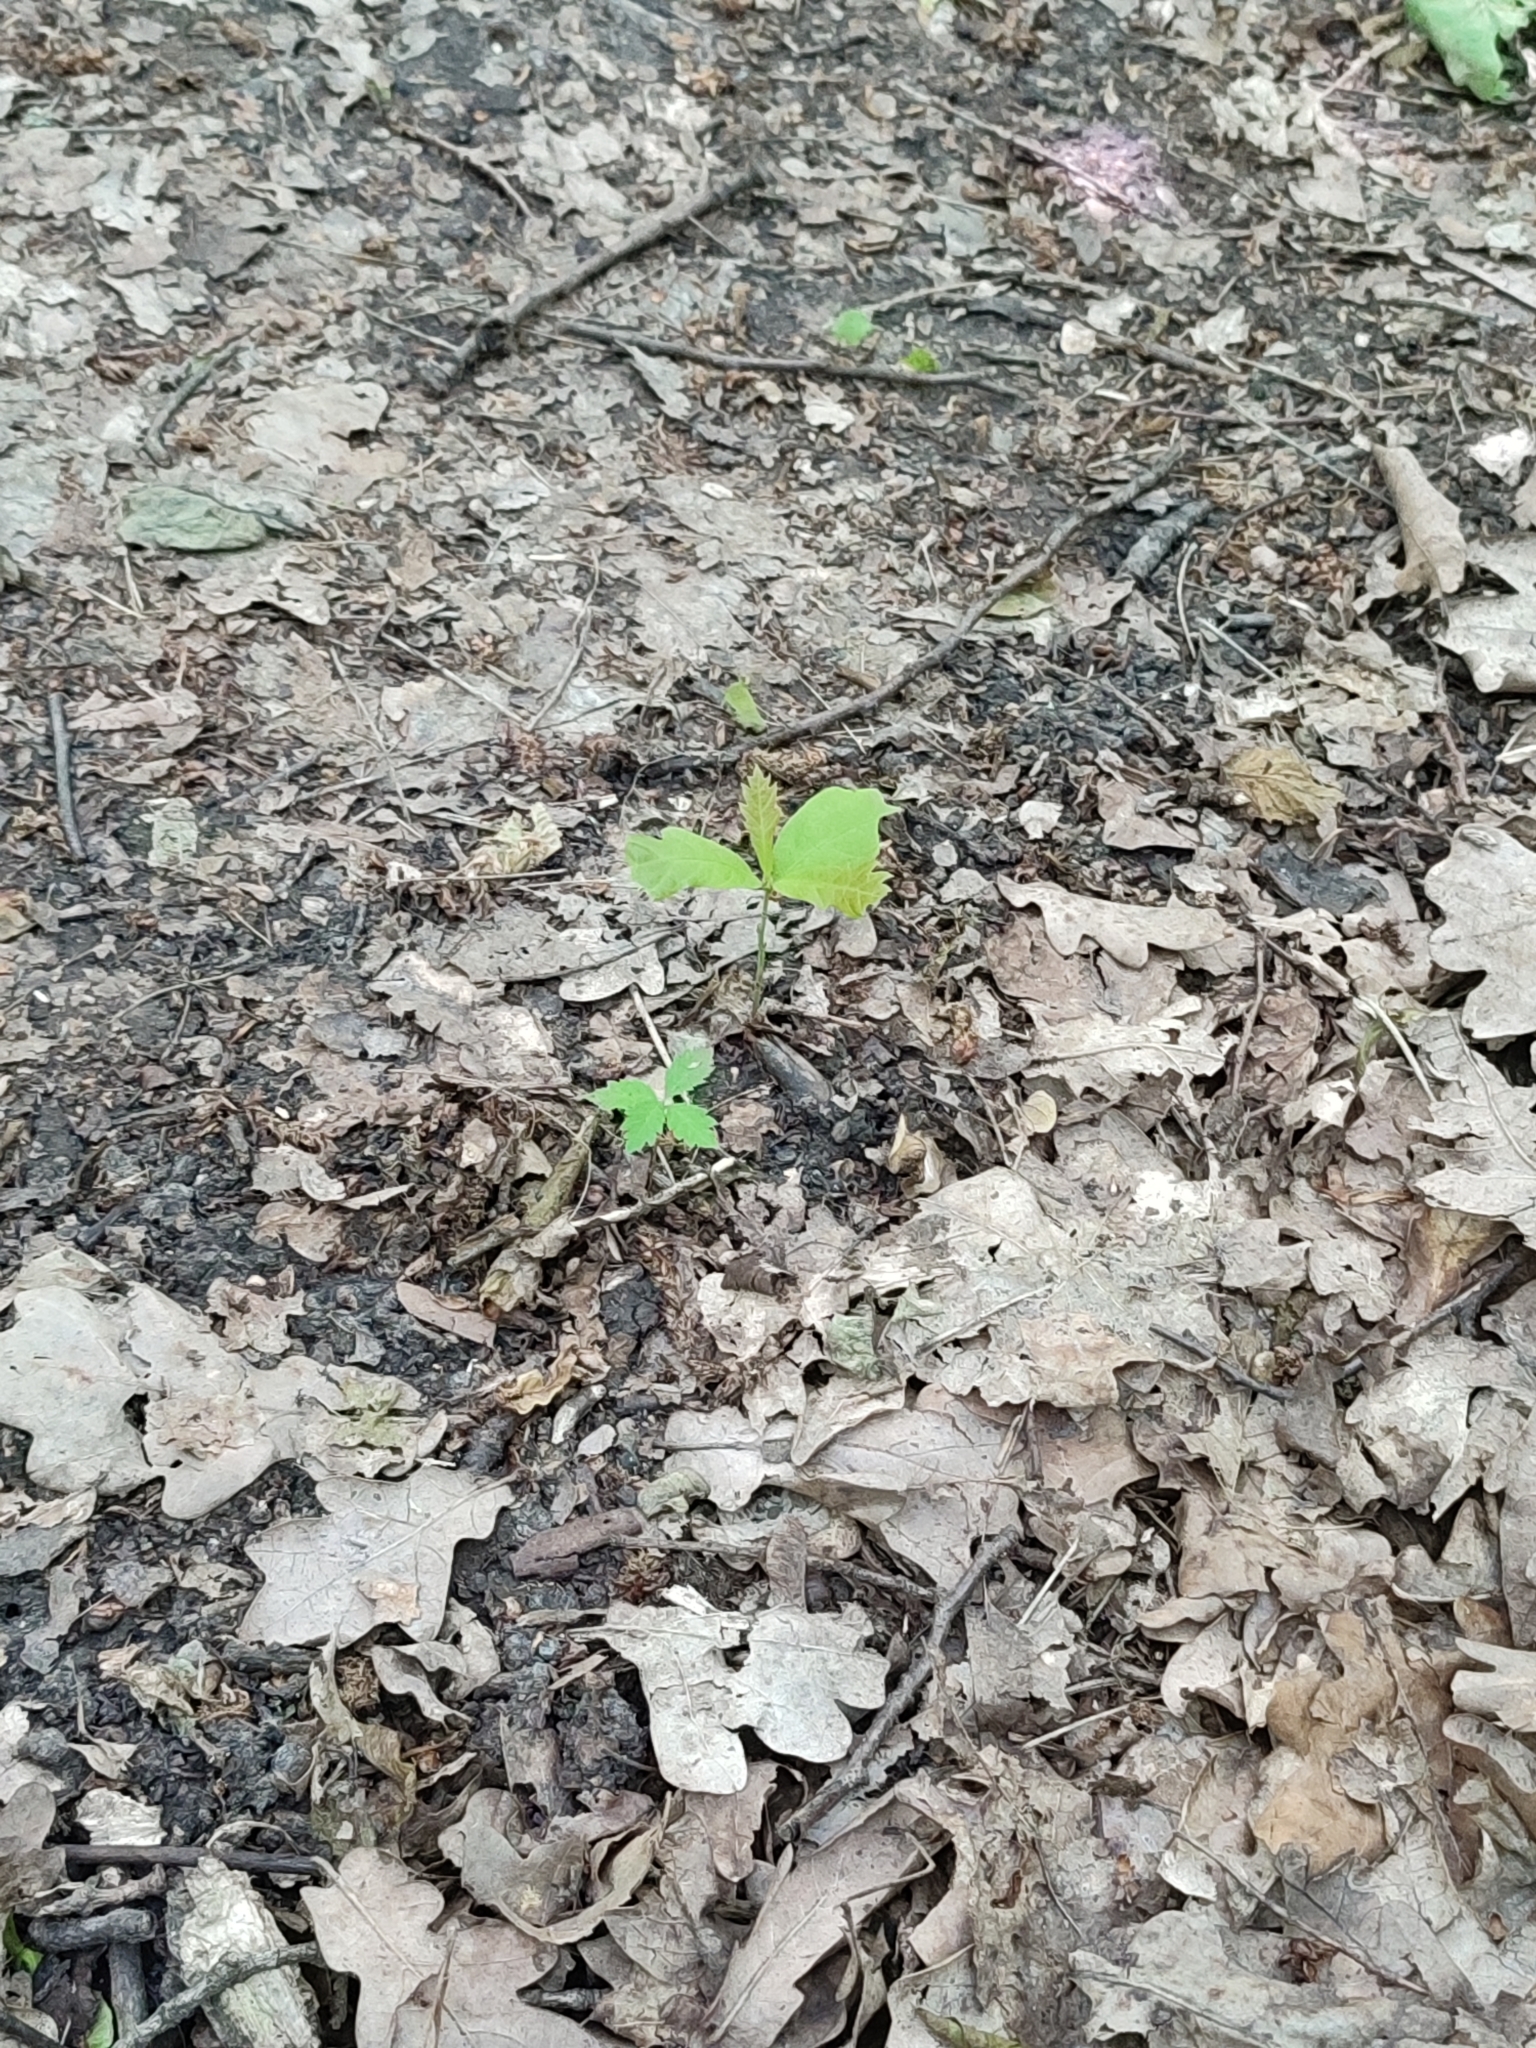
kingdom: Plantae
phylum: Tracheophyta
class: Magnoliopsida
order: Fagales
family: Fagaceae
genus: Quercus
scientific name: Quercus robur
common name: Pedunculate oak
